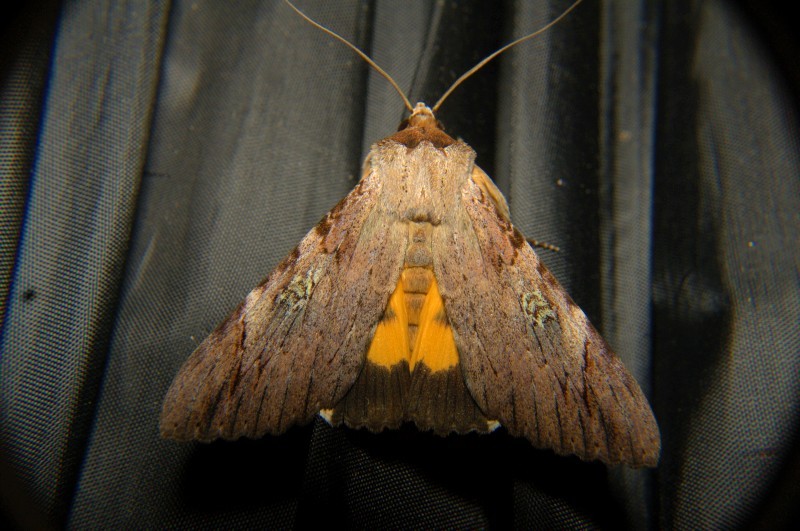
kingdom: Animalia
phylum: Arthropoda
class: Insecta
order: Lepidoptera
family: Erebidae
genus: Catocala
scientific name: Catocala macula
